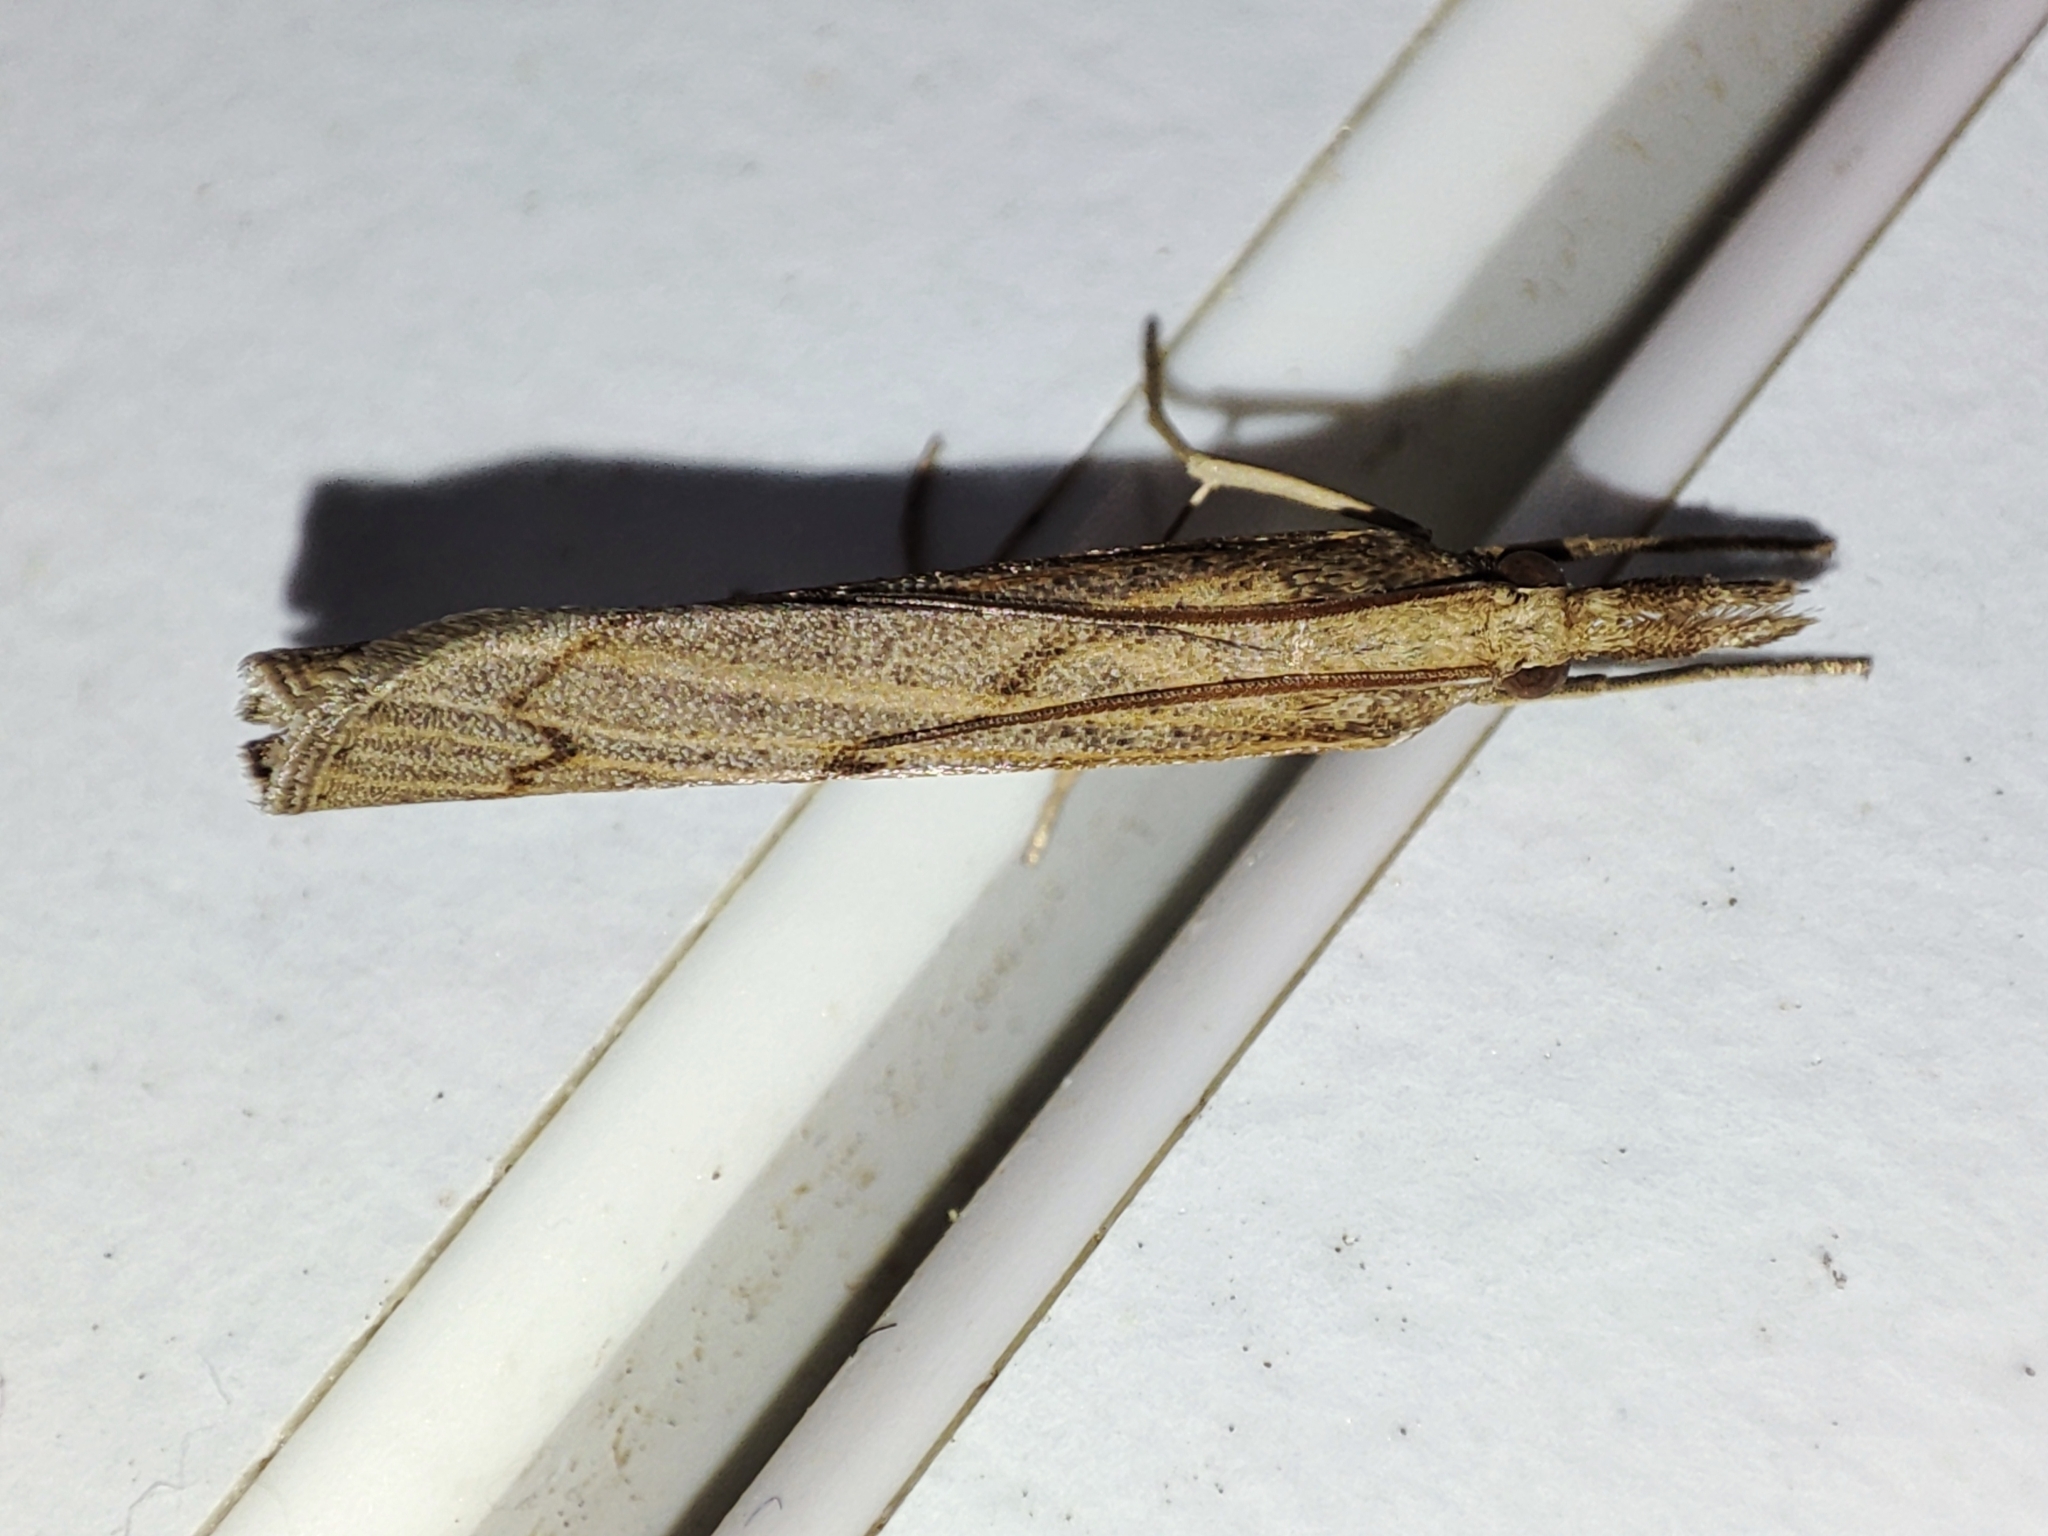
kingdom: Animalia
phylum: Arthropoda
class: Insecta
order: Lepidoptera
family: Crambidae
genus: Pediasia
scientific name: Pediasia contaminella
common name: Waste grass-veneer
